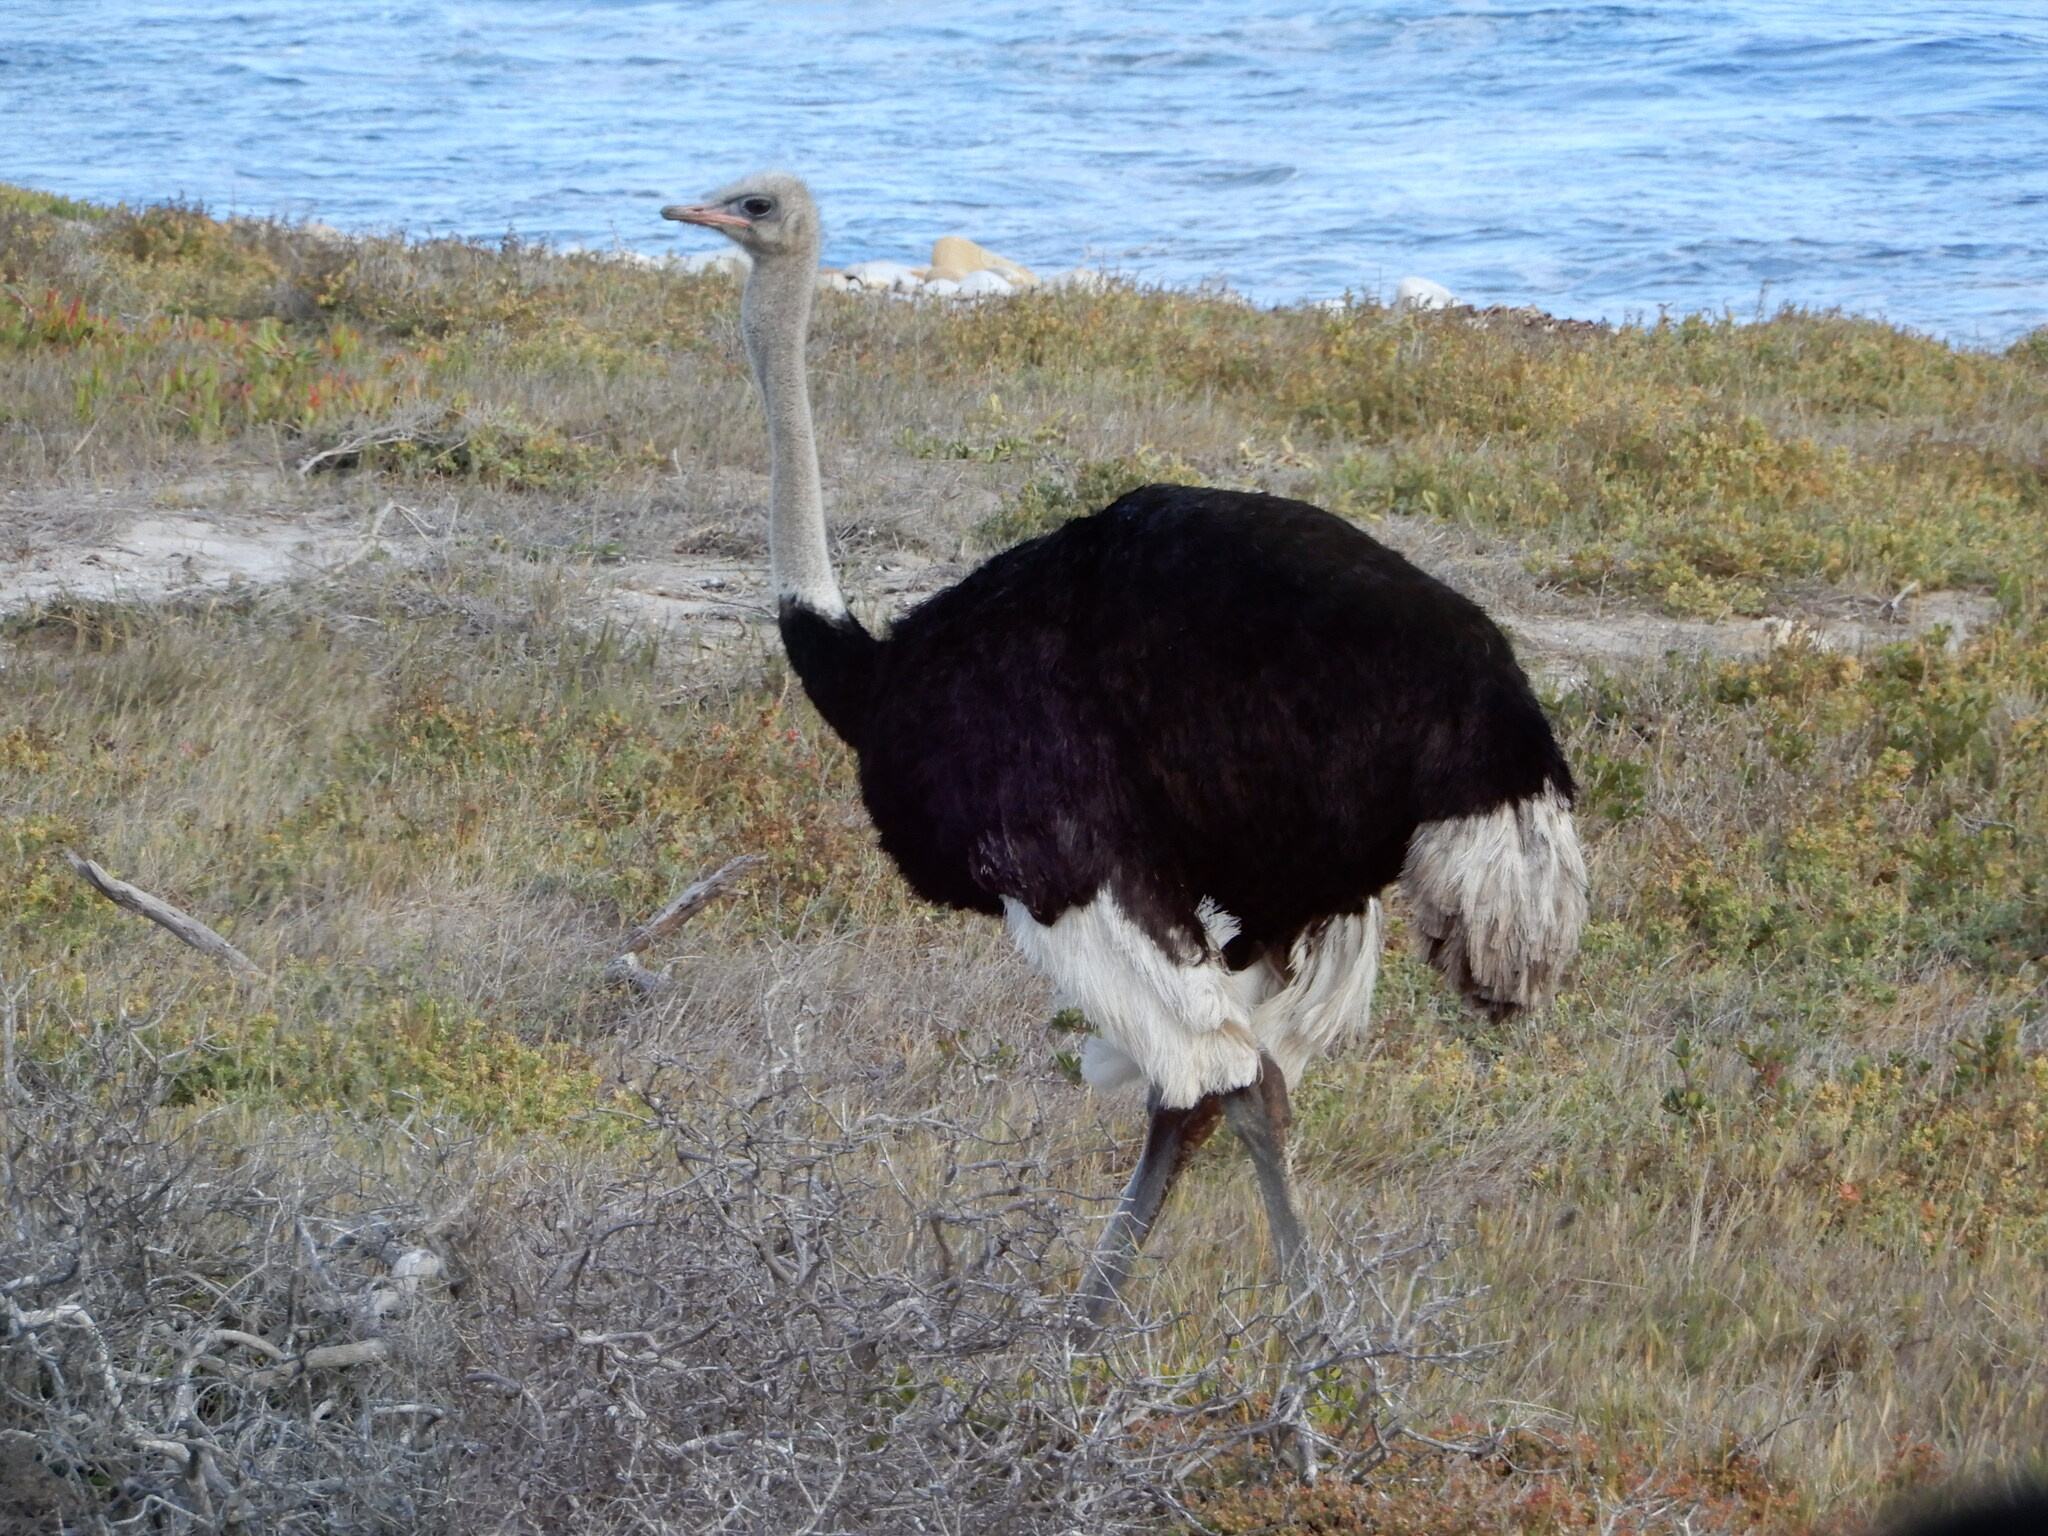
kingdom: Animalia
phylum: Chordata
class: Aves
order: Struthioniformes
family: Struthionidae
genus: Struthio
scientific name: Struthio camelus
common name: Common ostrich
